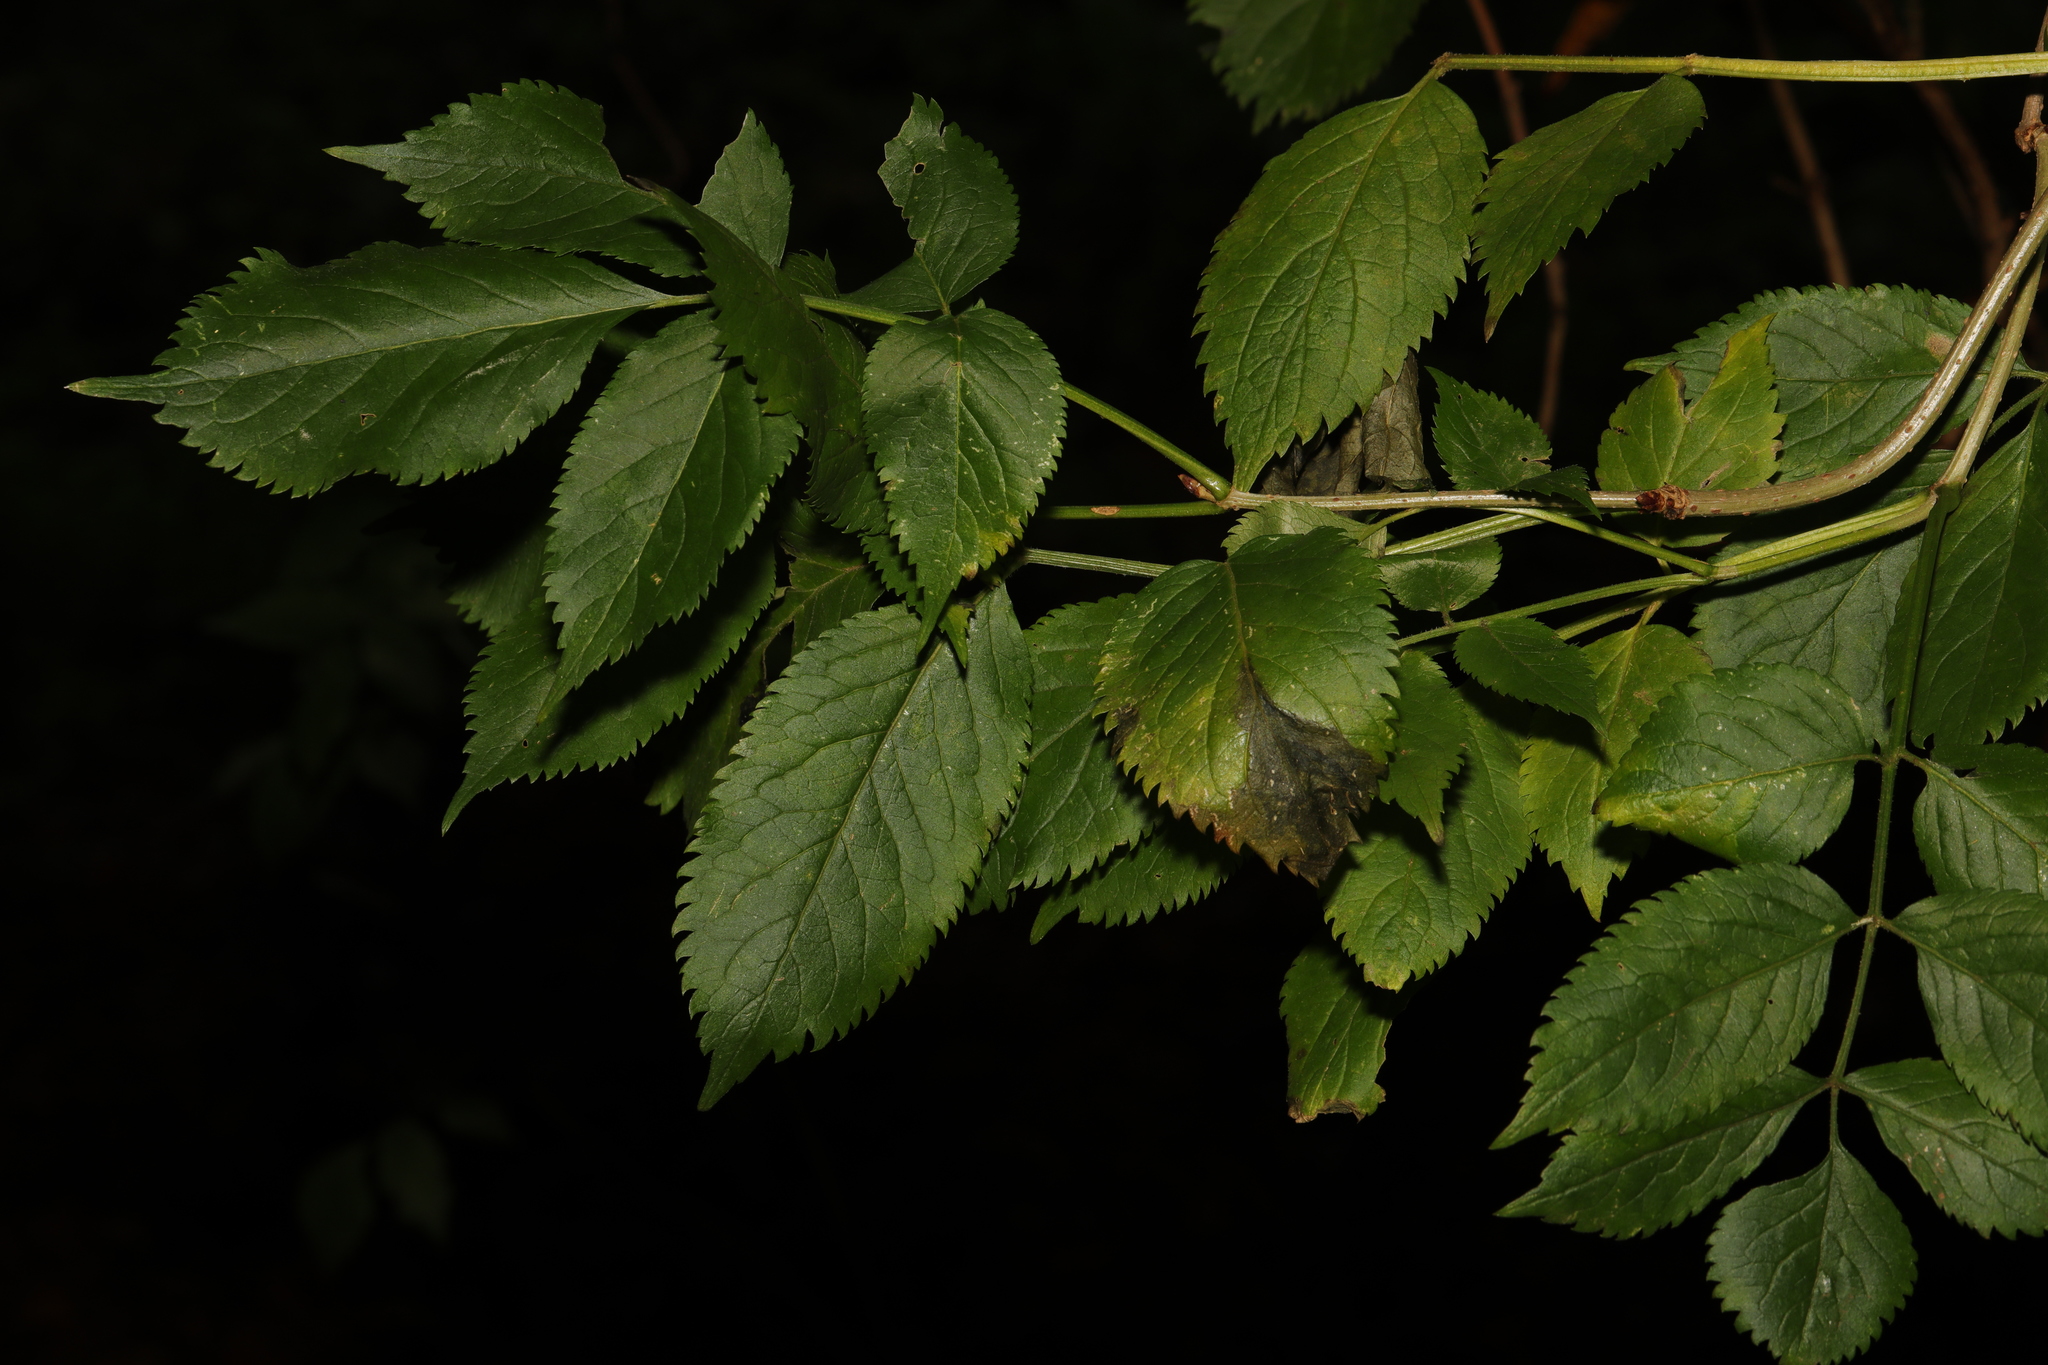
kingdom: Plantae
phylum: Tracheophyta
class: Magnoliopsida
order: Dipsacales
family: Viburnaceae
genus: Sambucus
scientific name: Sambucus nigra
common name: Elder
